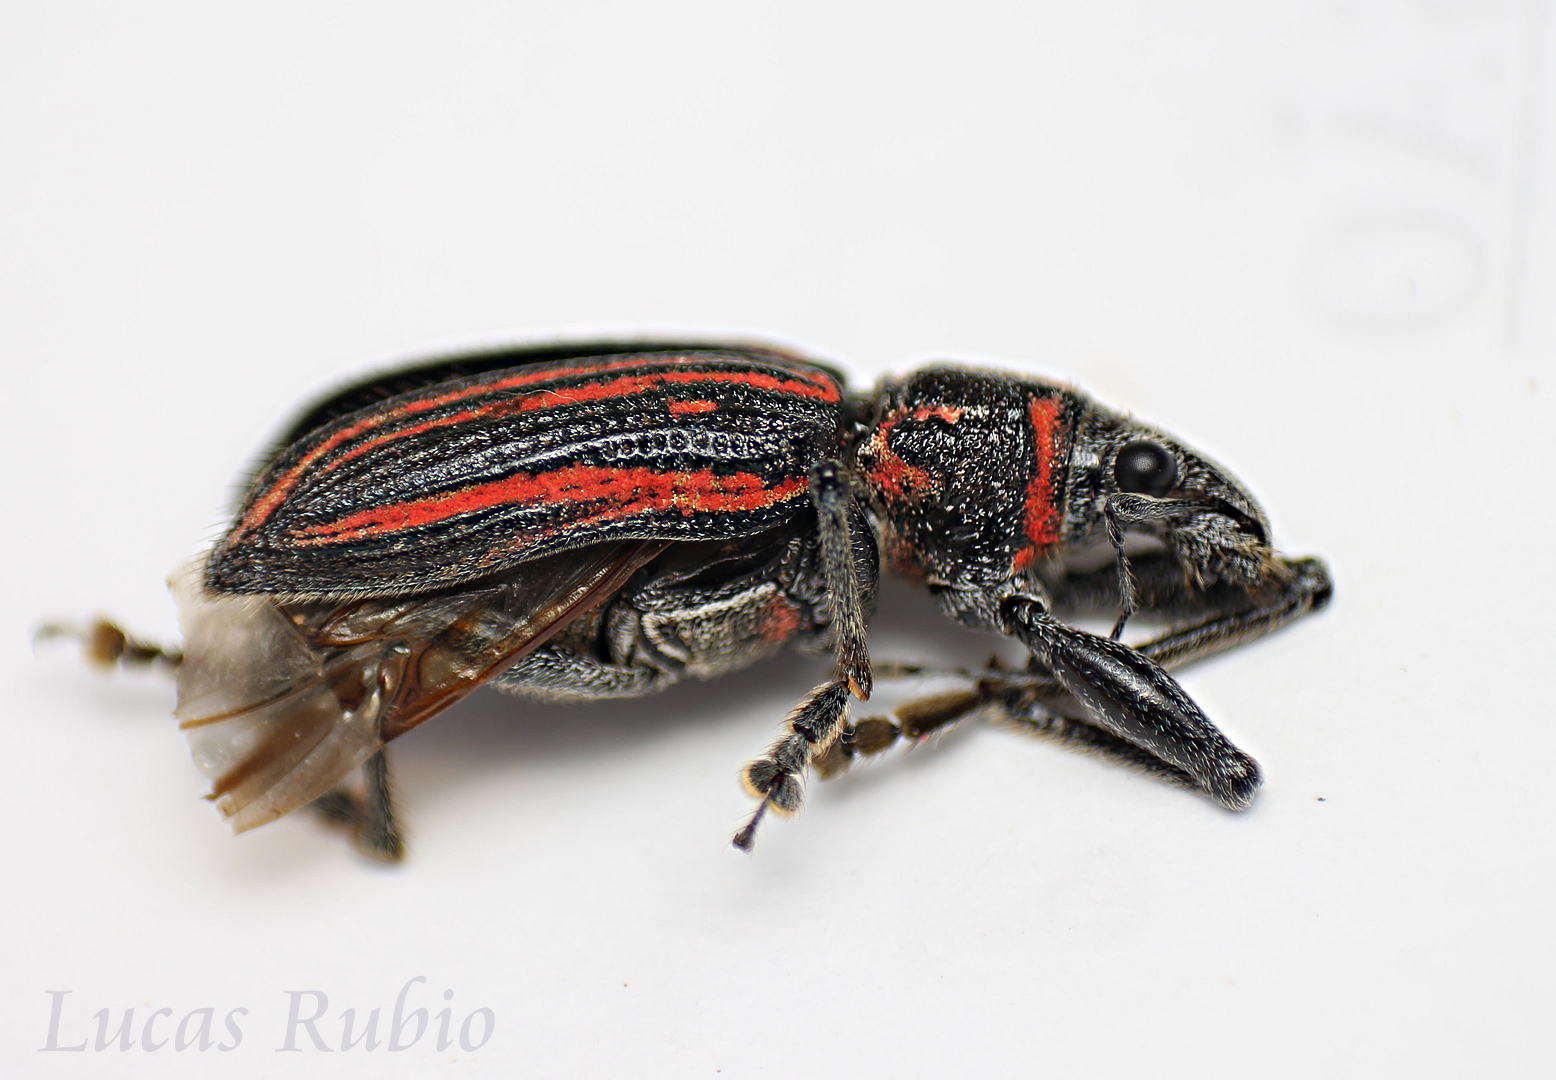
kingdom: Animalia
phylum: Arthropoda
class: Insecta
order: Coleoptera
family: Curculionidae
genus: Naupactus
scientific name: Naupactus rivulosus
